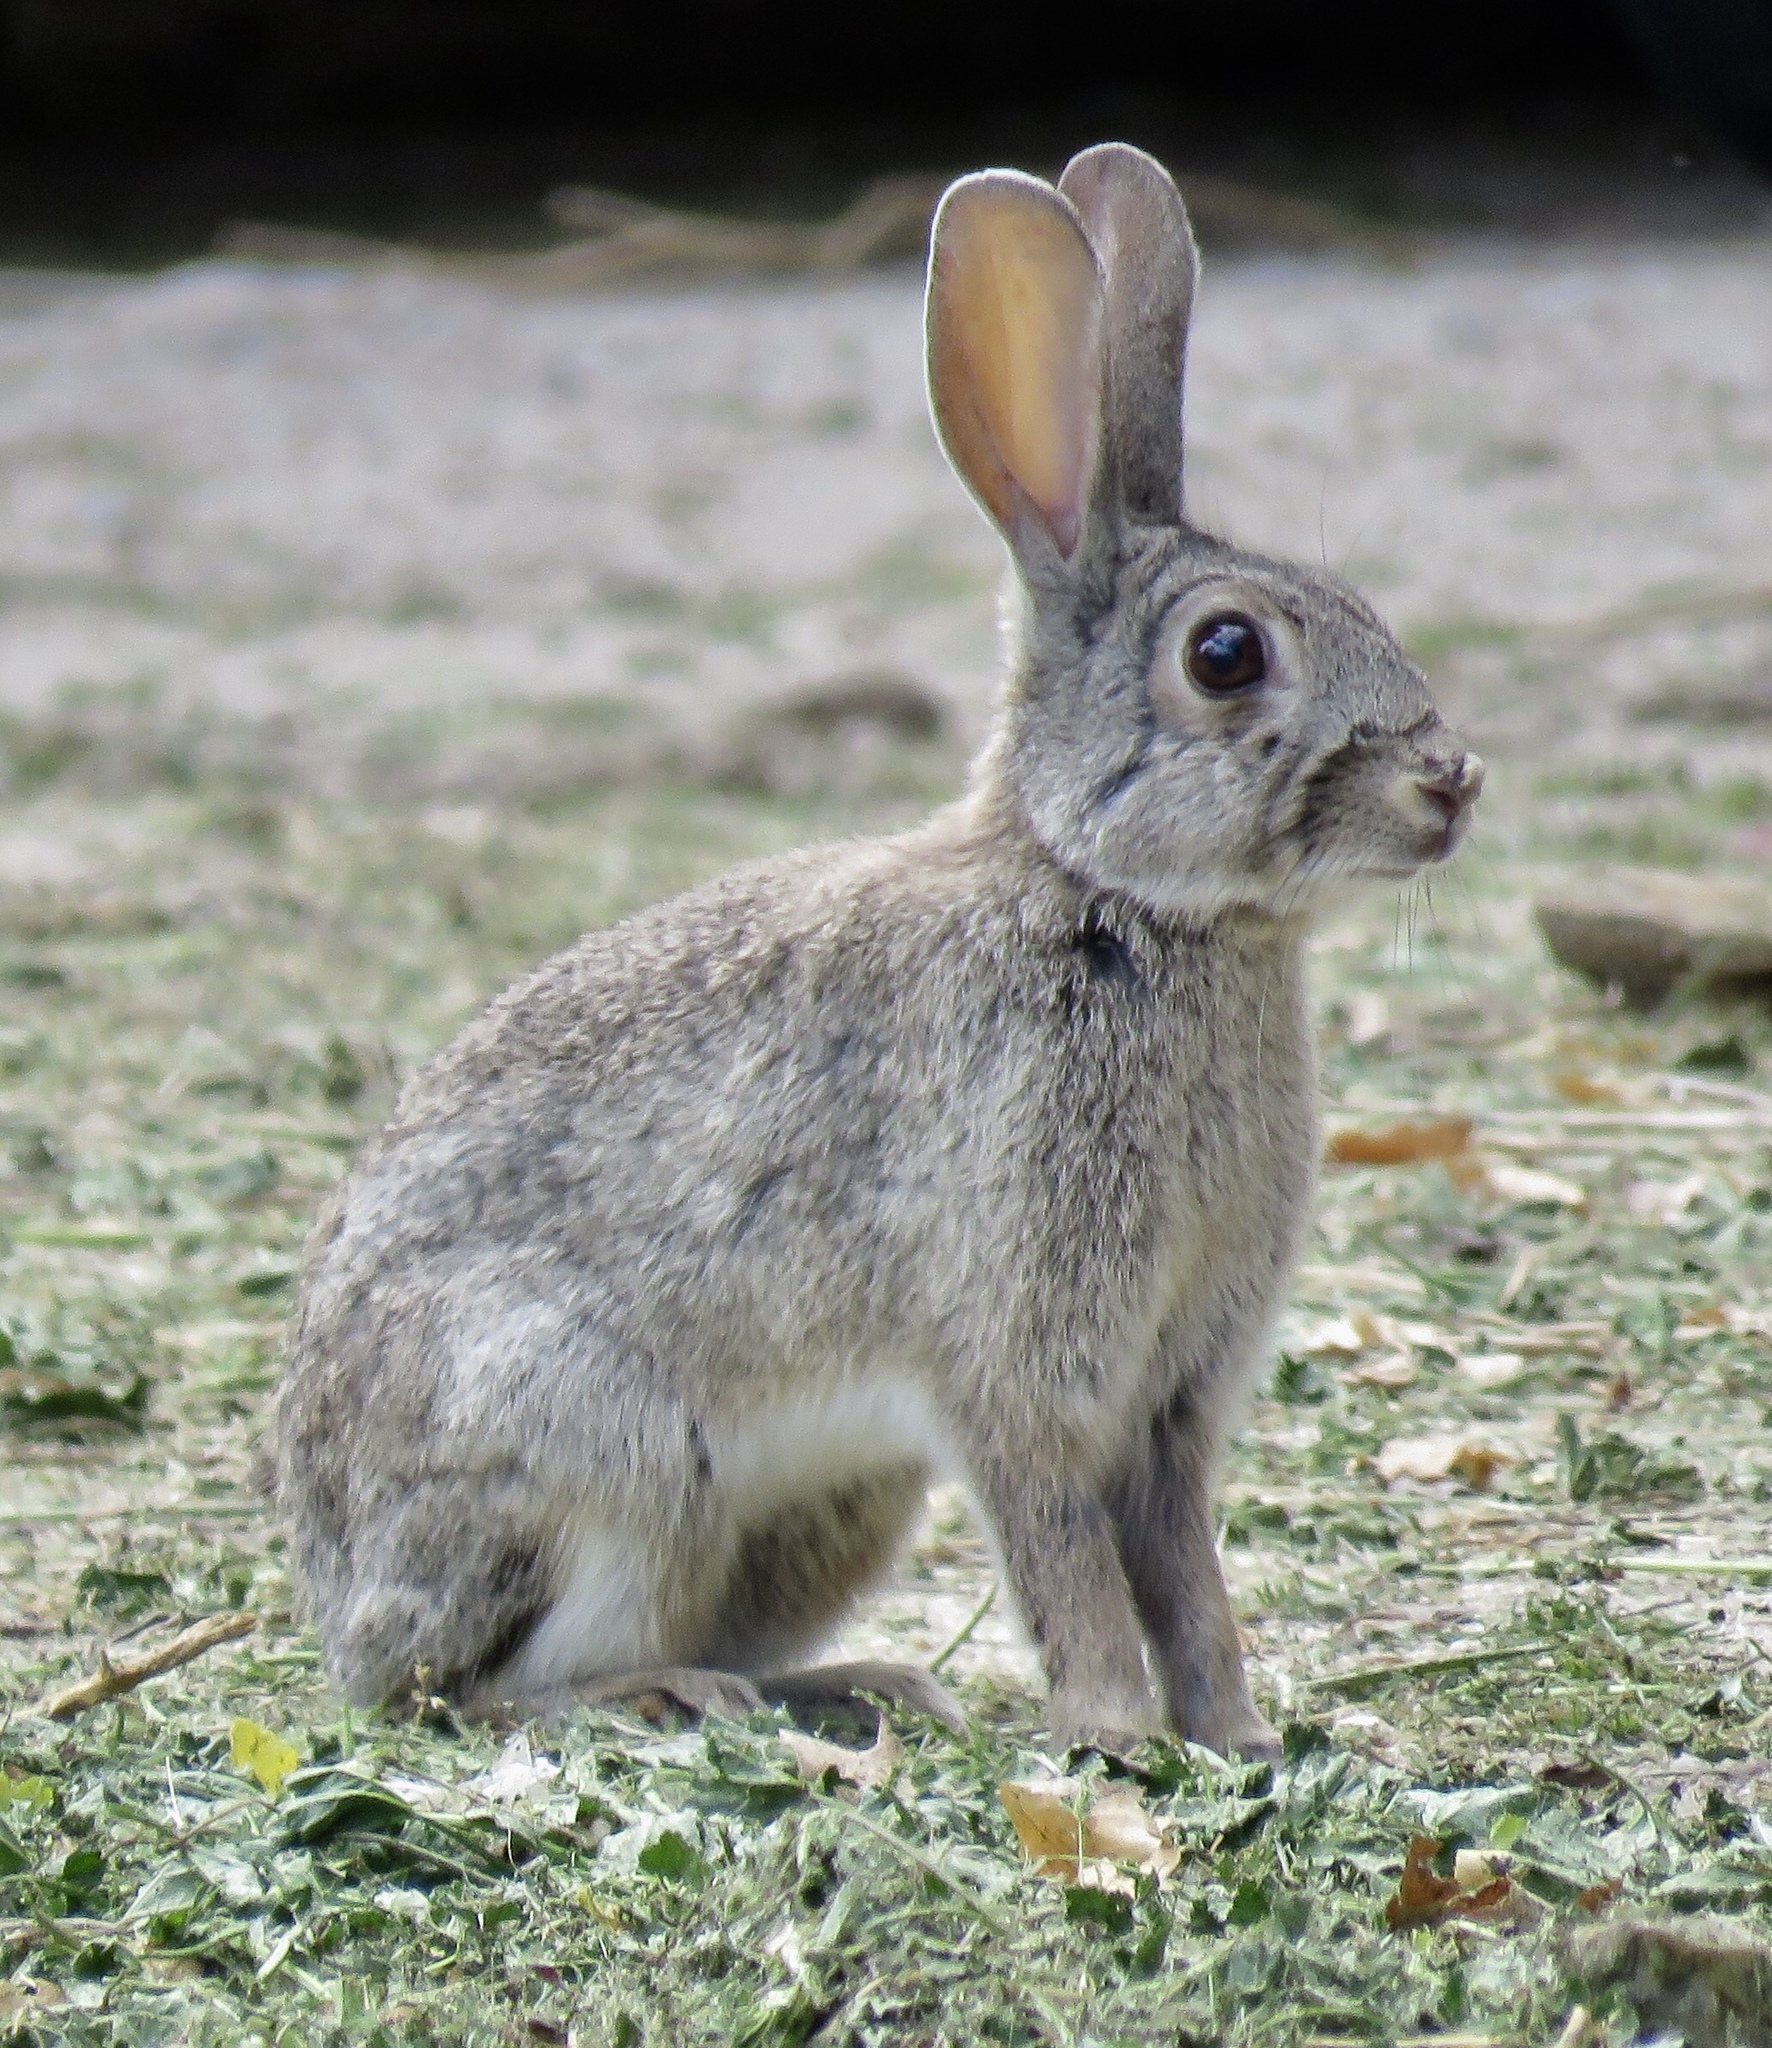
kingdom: Animalia
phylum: Chordata
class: Mammalia
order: Lagomorpha
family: Leporidae
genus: Oryctolagus
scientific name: Oryctolagus cuniculus
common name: European rabbit
